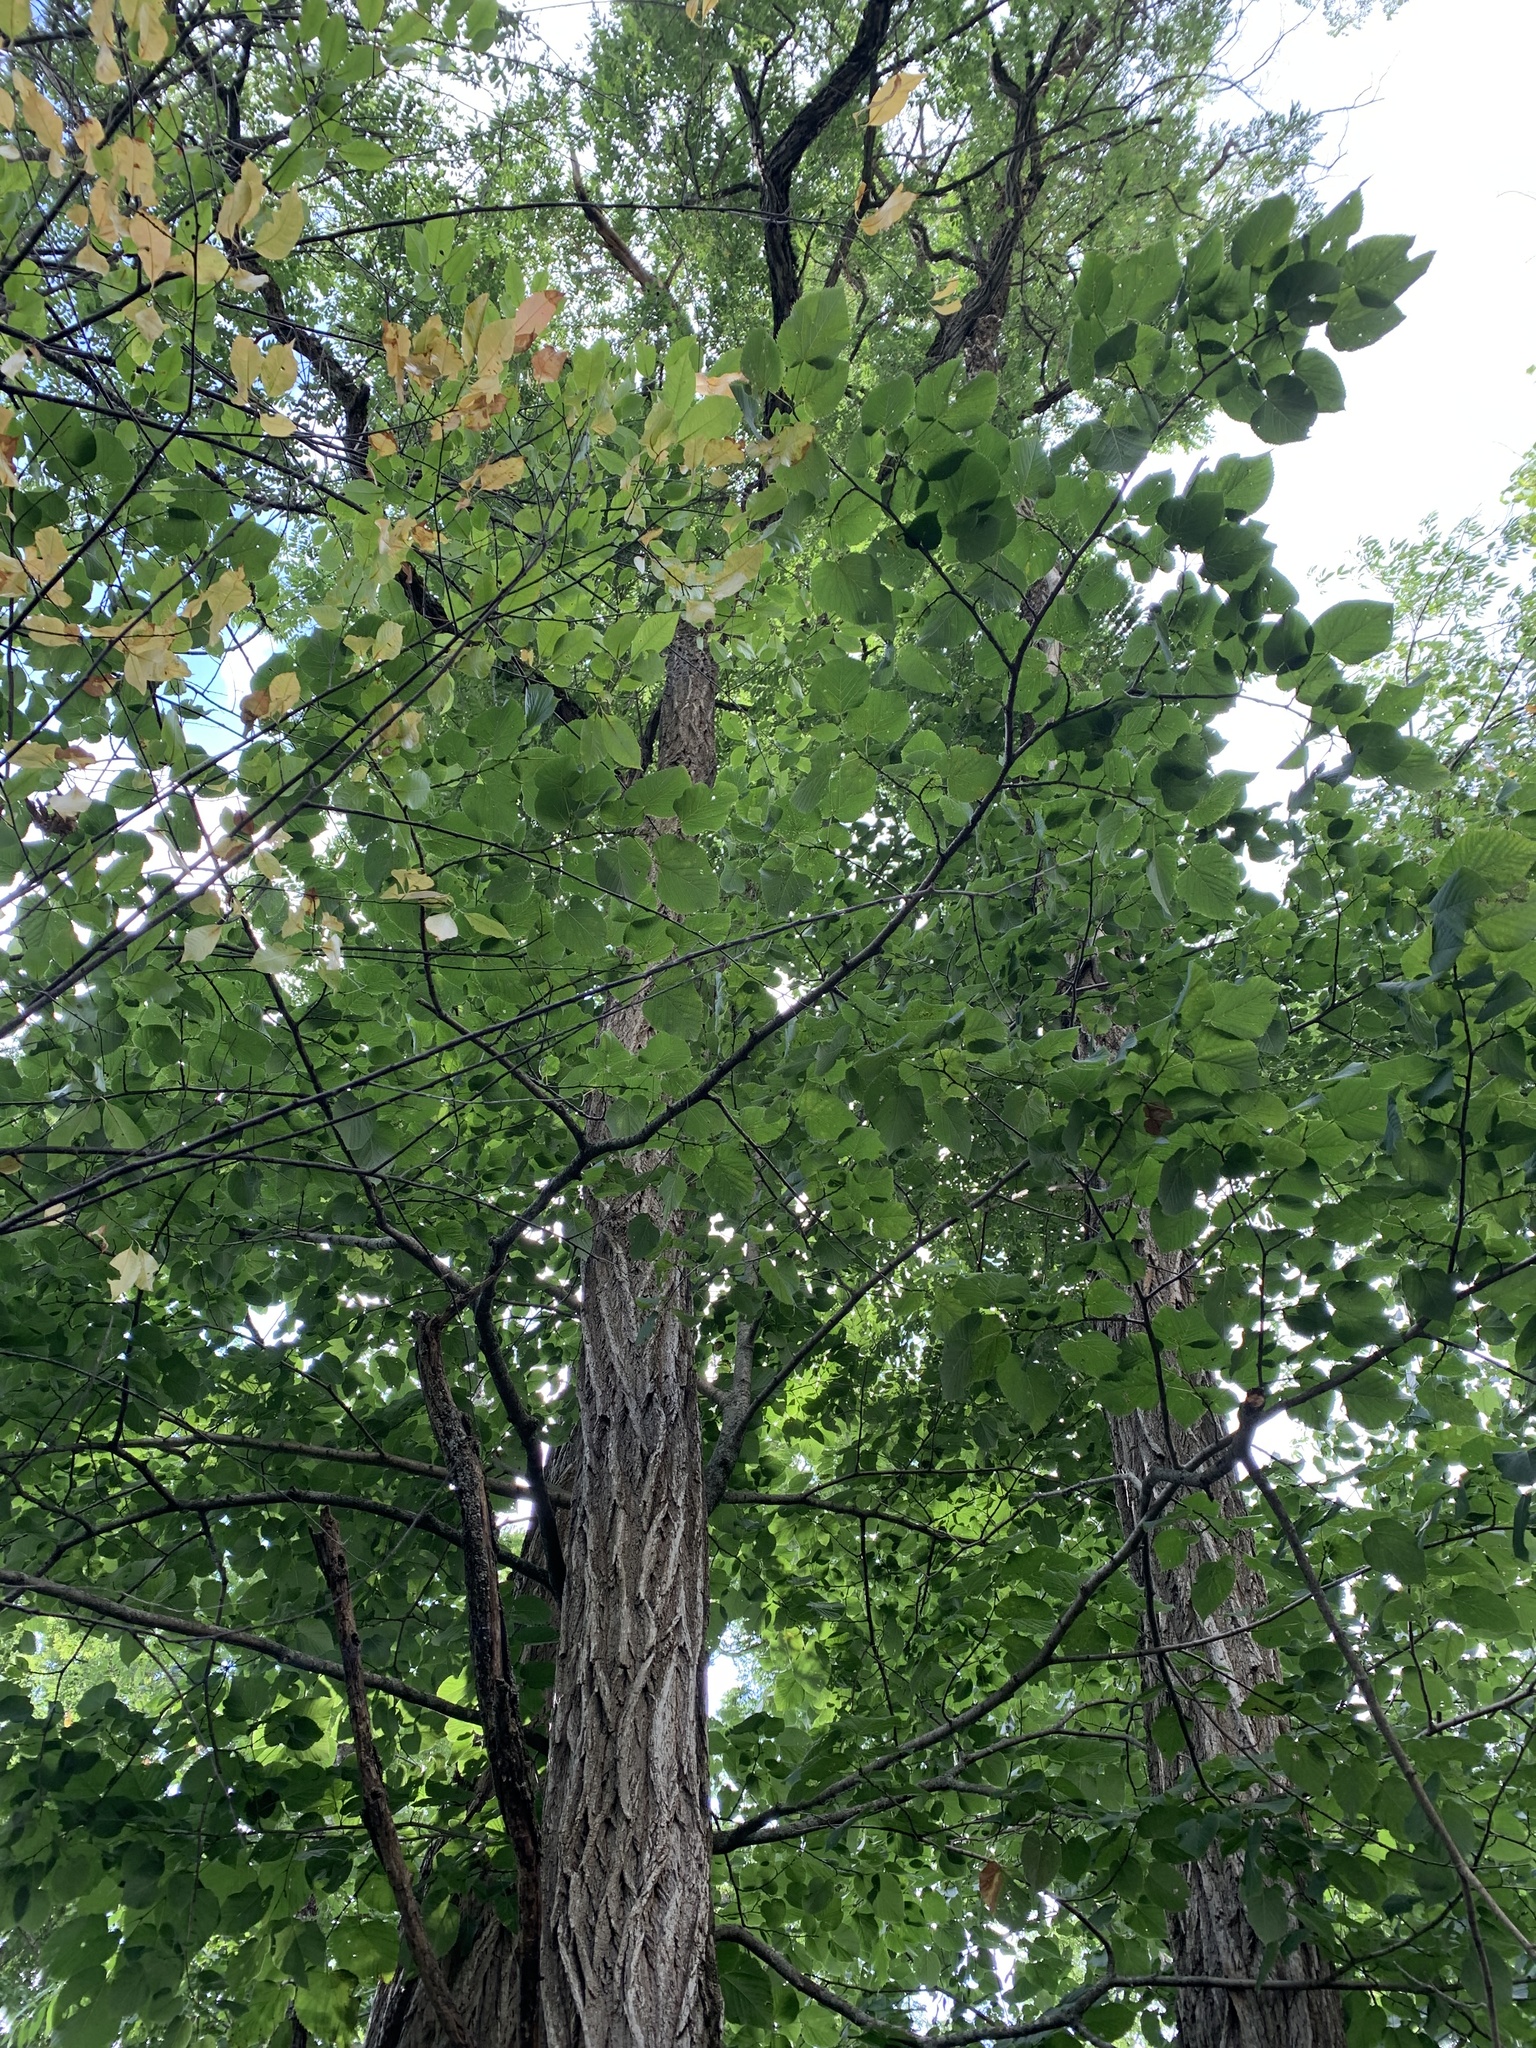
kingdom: Plantae
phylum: Tracheophyta
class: Magnoliopsida
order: Fabales
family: Fabaceae
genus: Robinia
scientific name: Robinia pseudoacacia
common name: Black locust
